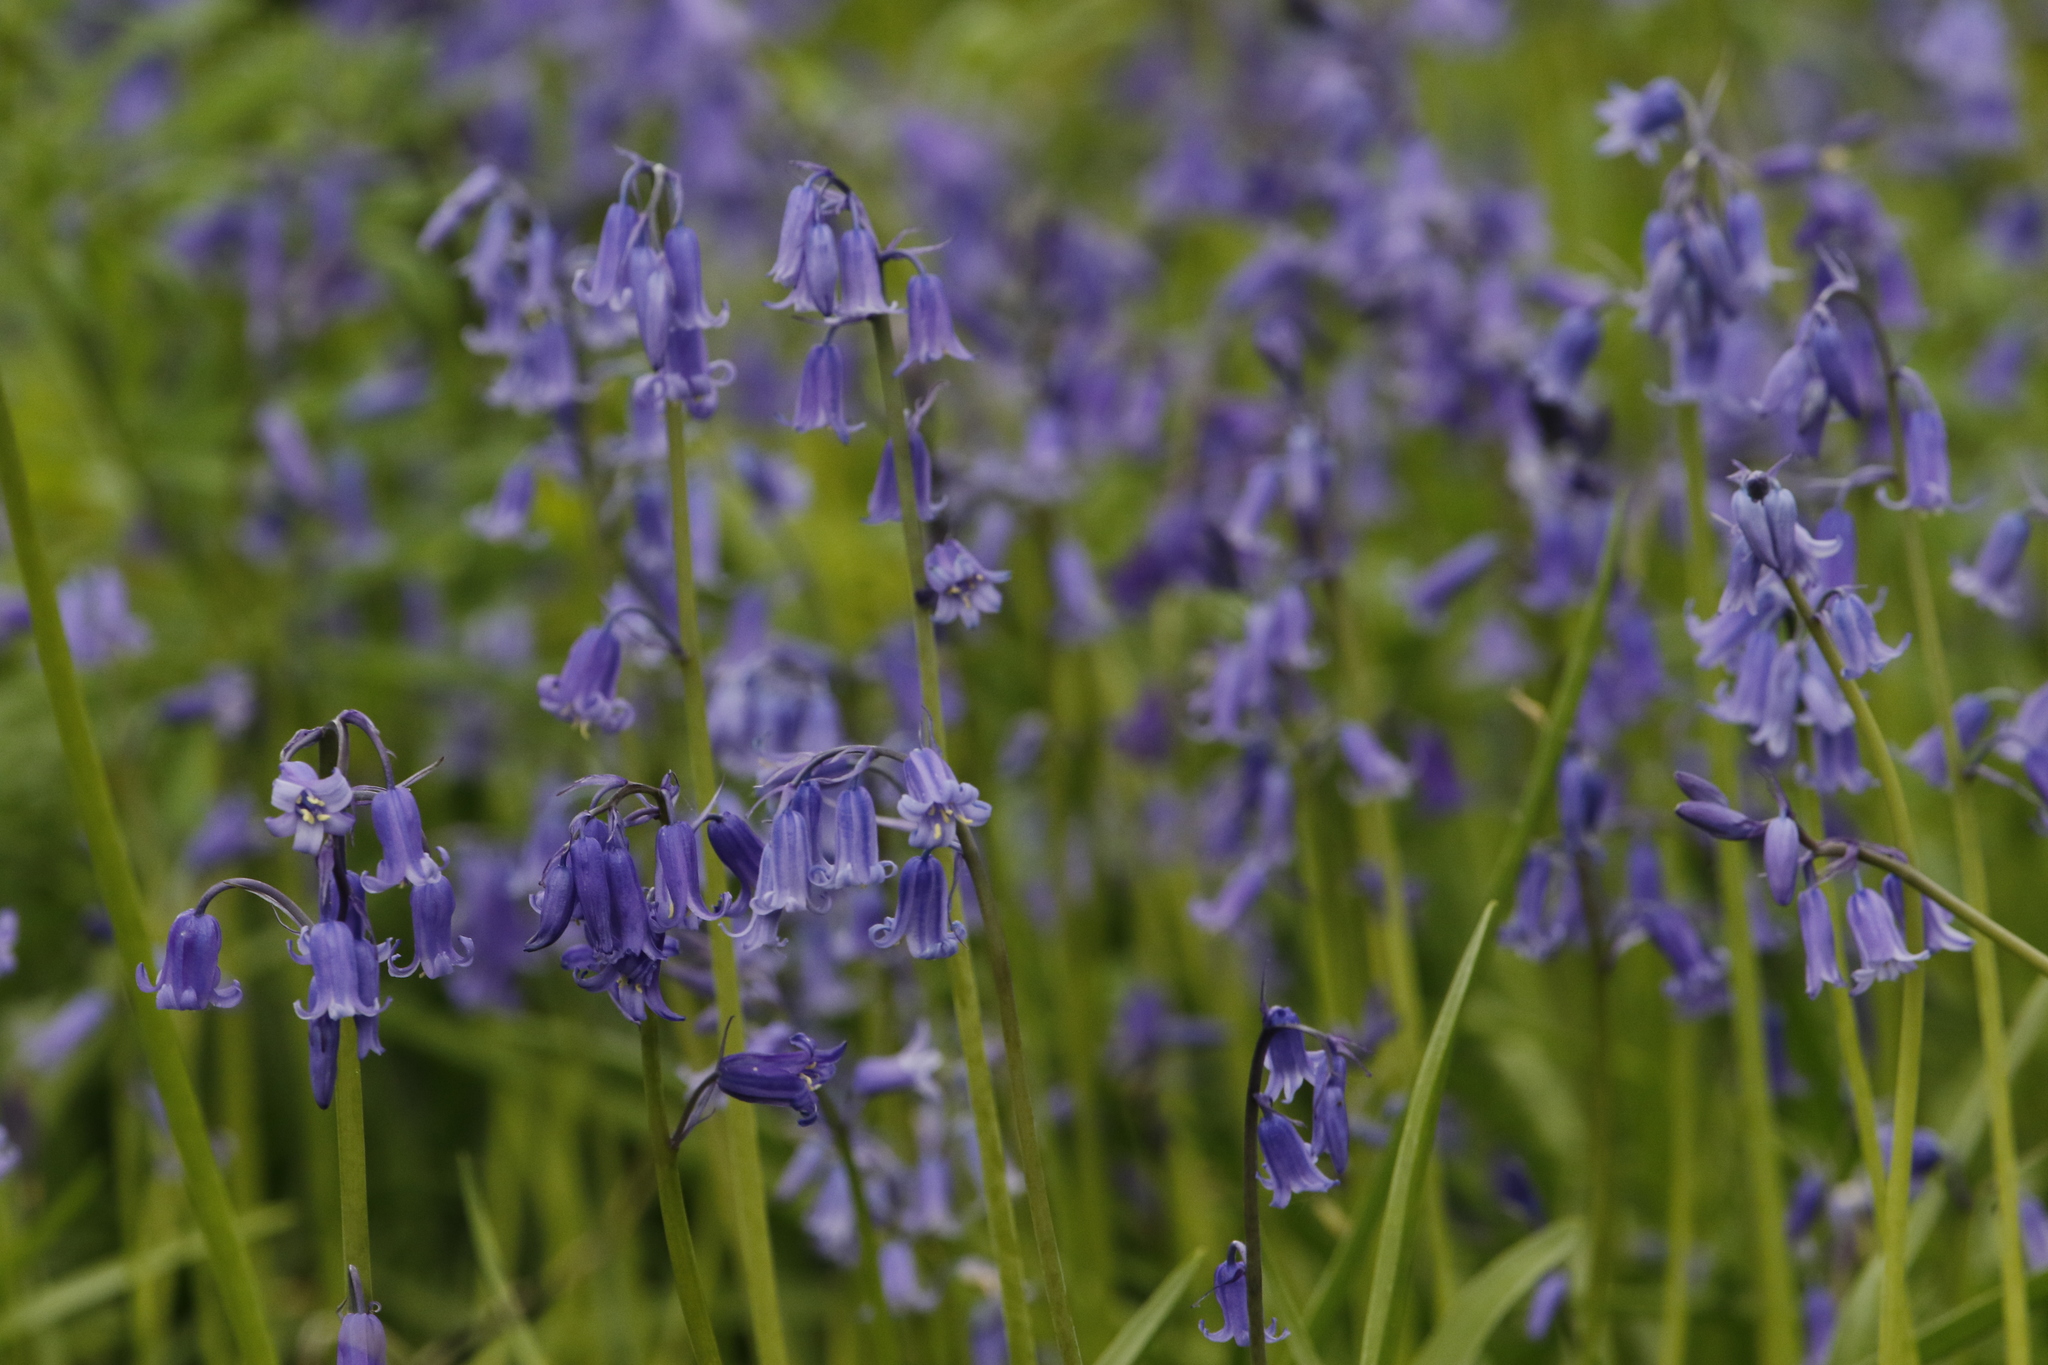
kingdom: Plantae
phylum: Tracheophyta
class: Liliopsida
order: Asparagales
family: Asparagaceae
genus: Hyacinthoides
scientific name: Hyacinthoides non-scripta
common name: Bluebell
